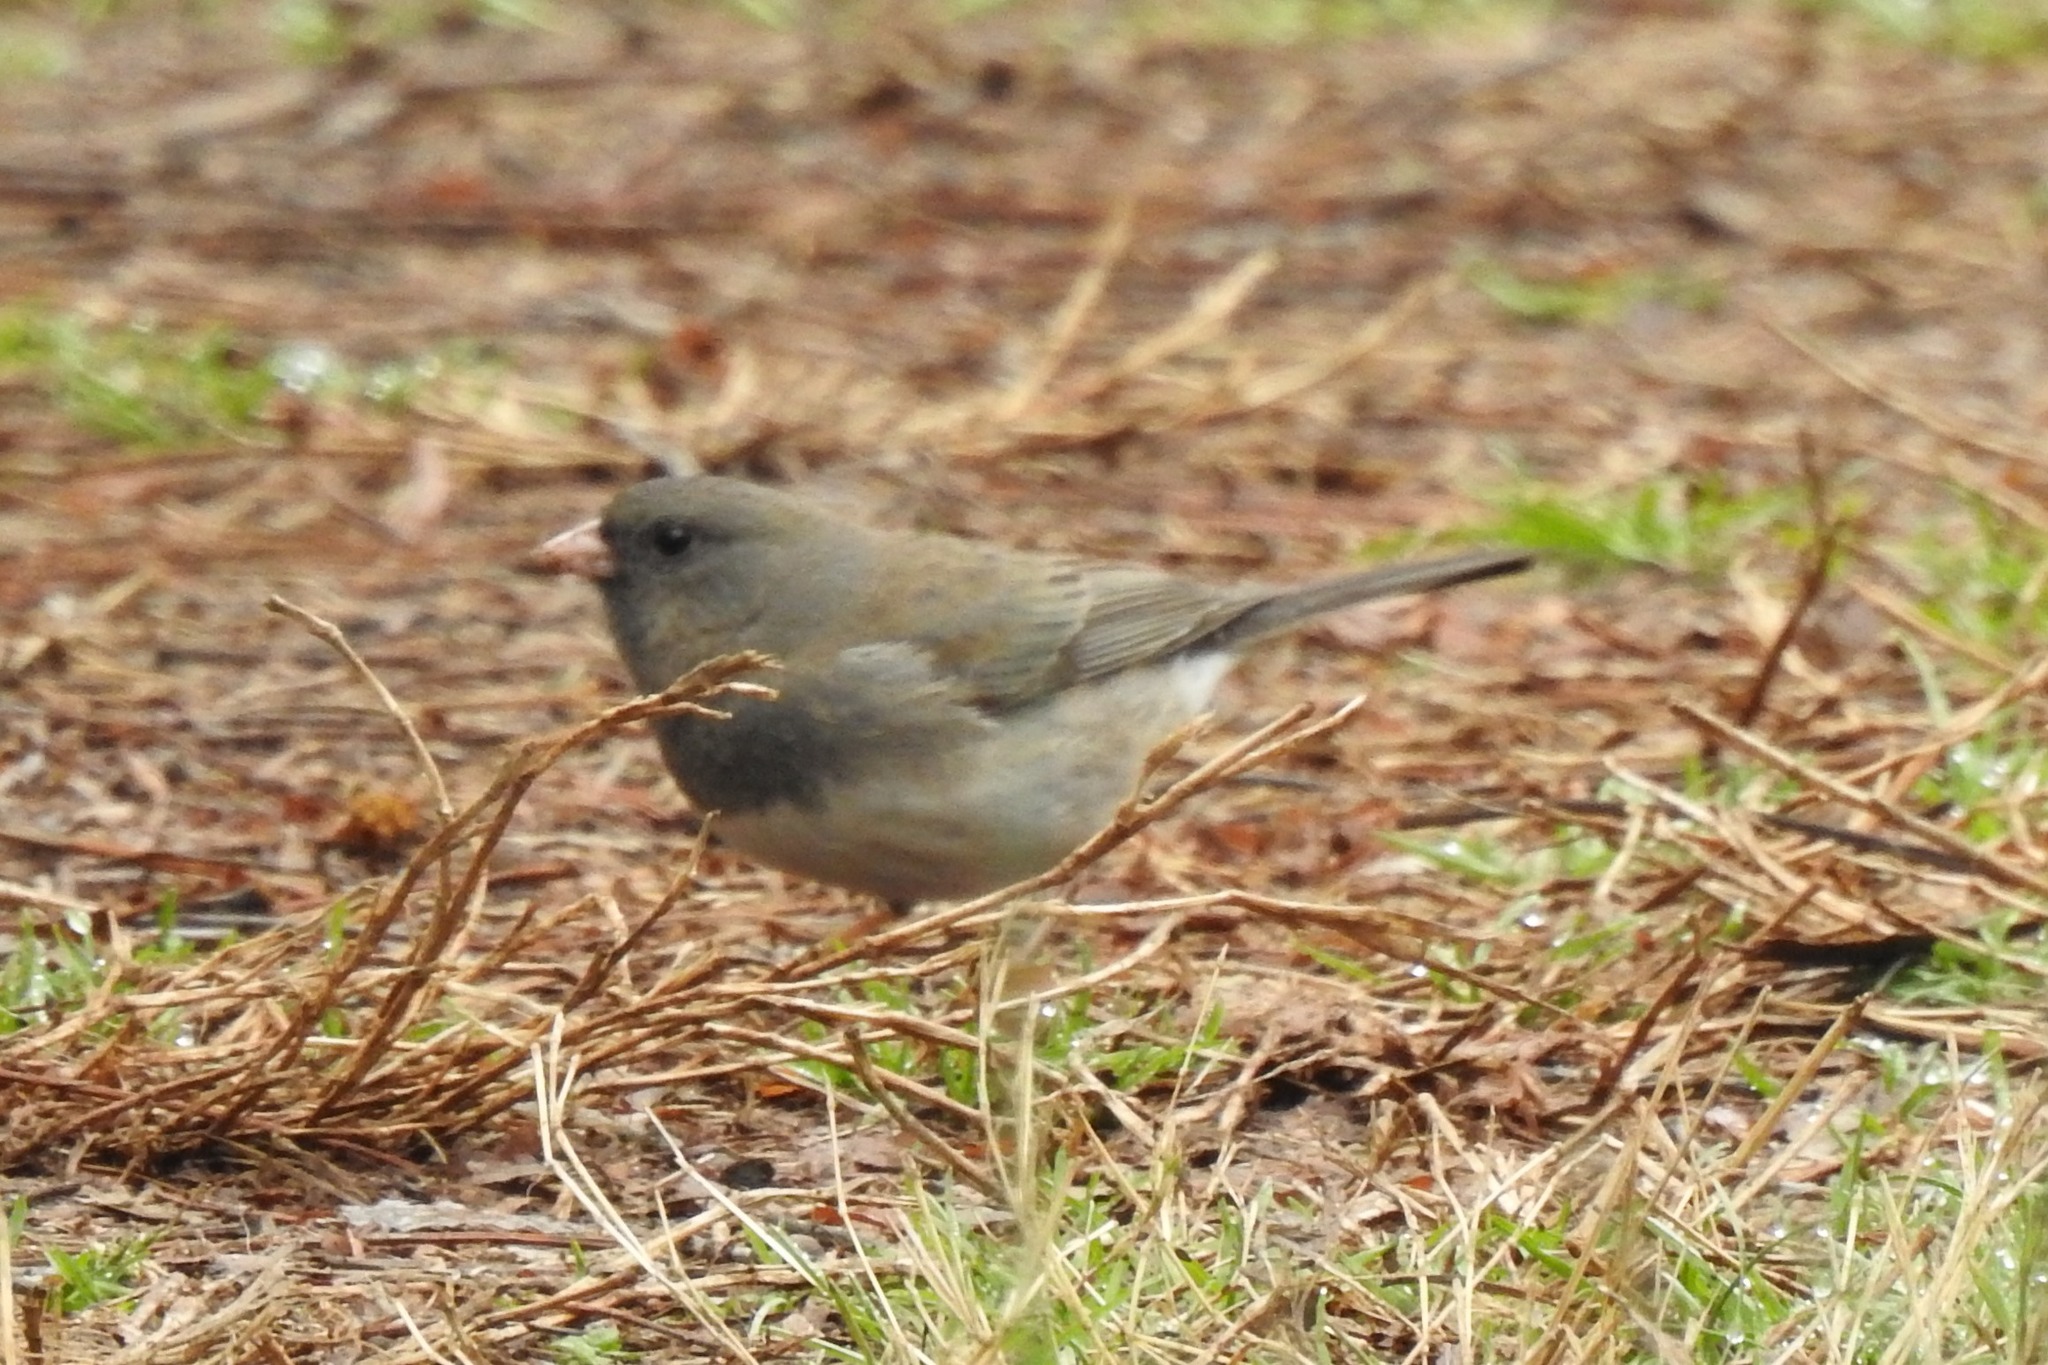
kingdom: Animalia
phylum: Chordata
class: Aves
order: Passeriformes
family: Passerellidae
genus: Junco
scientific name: Junco hyemalis
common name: Dark-eyed junco
